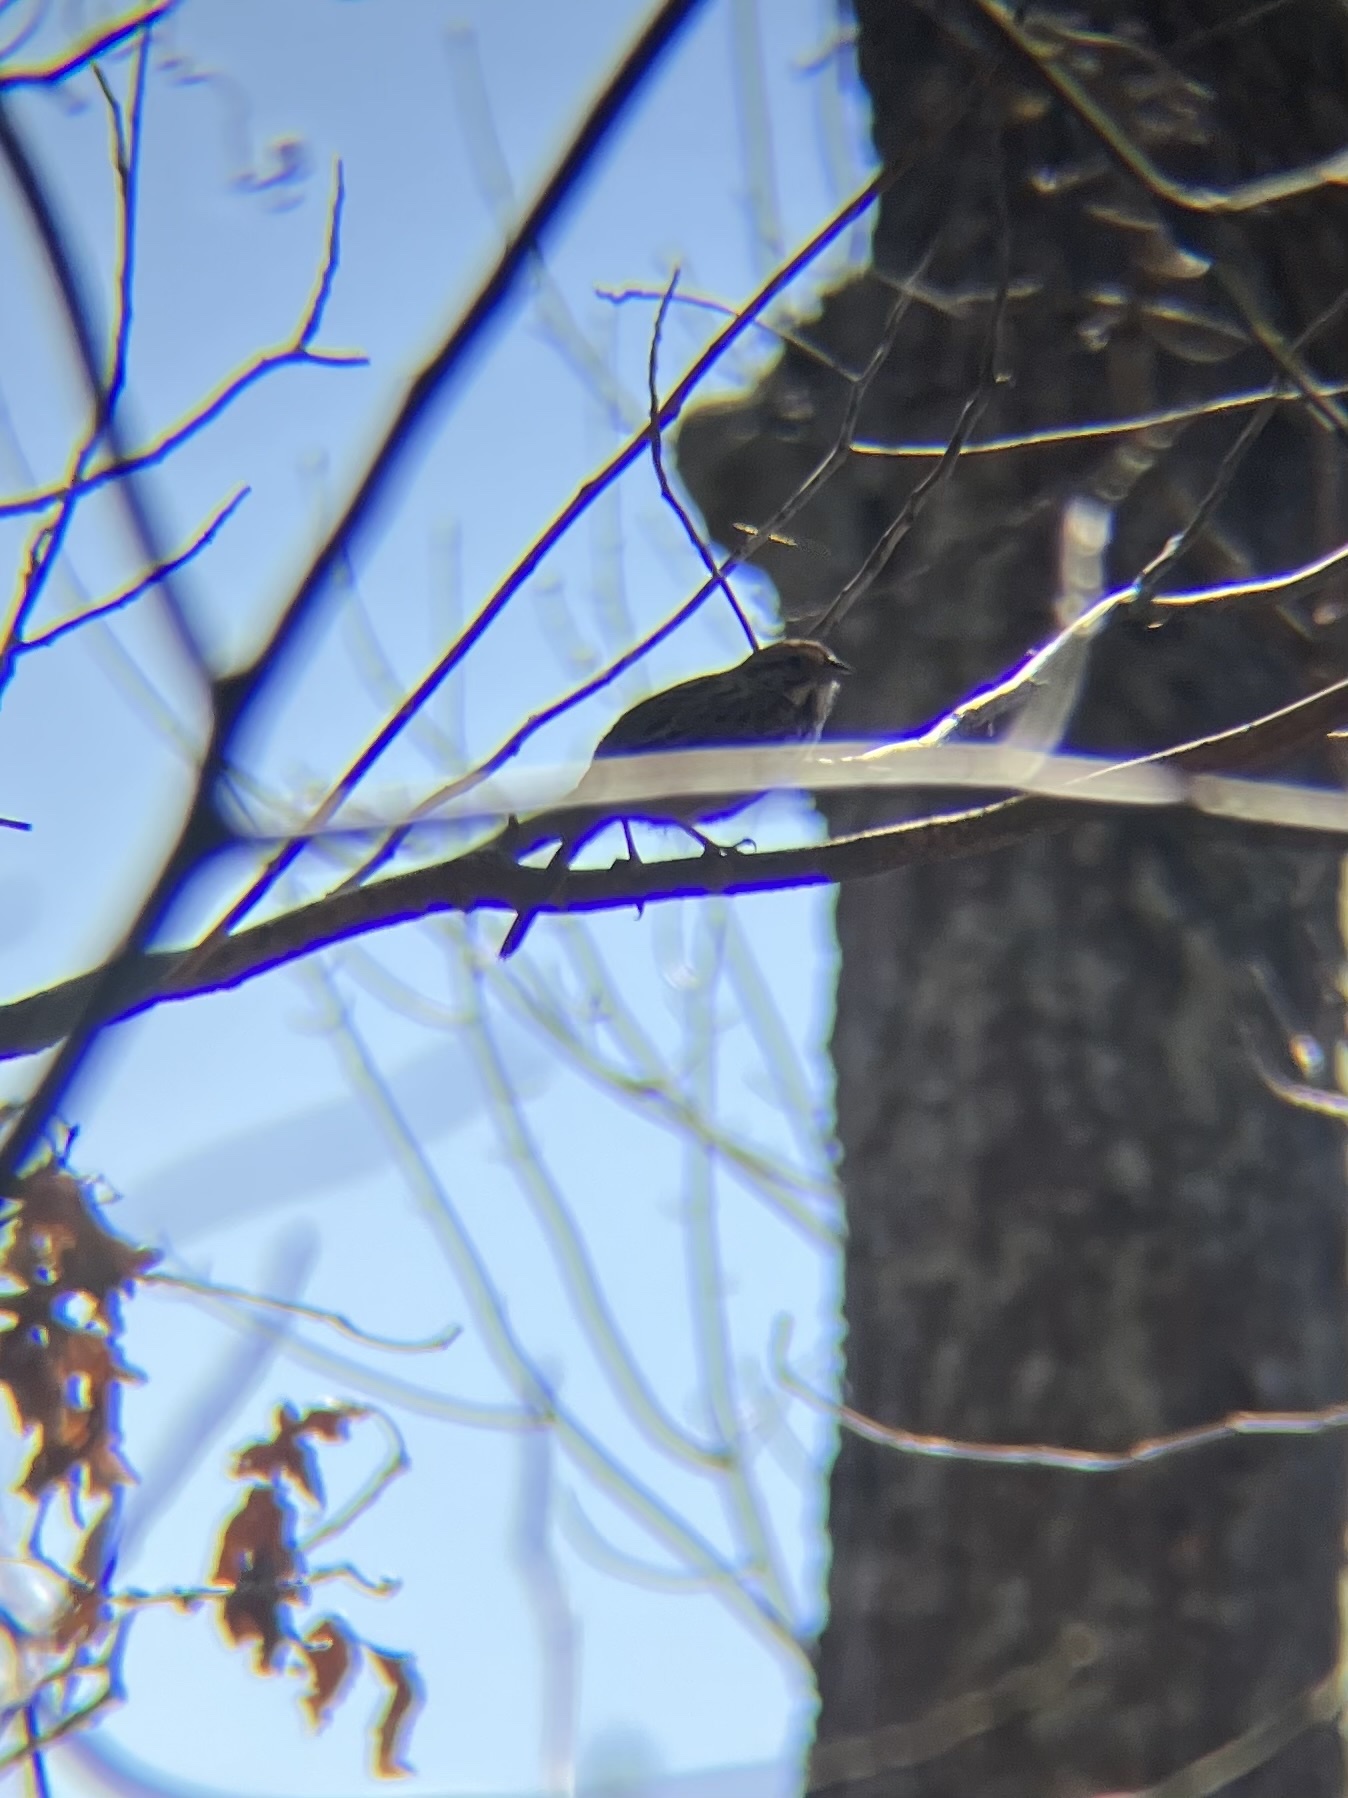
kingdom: Animalia
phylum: Chordata
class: Aves
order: Passeriformes
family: Passerellidae
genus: Melospiza
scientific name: Melospiza melodia
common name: Song sparrow
